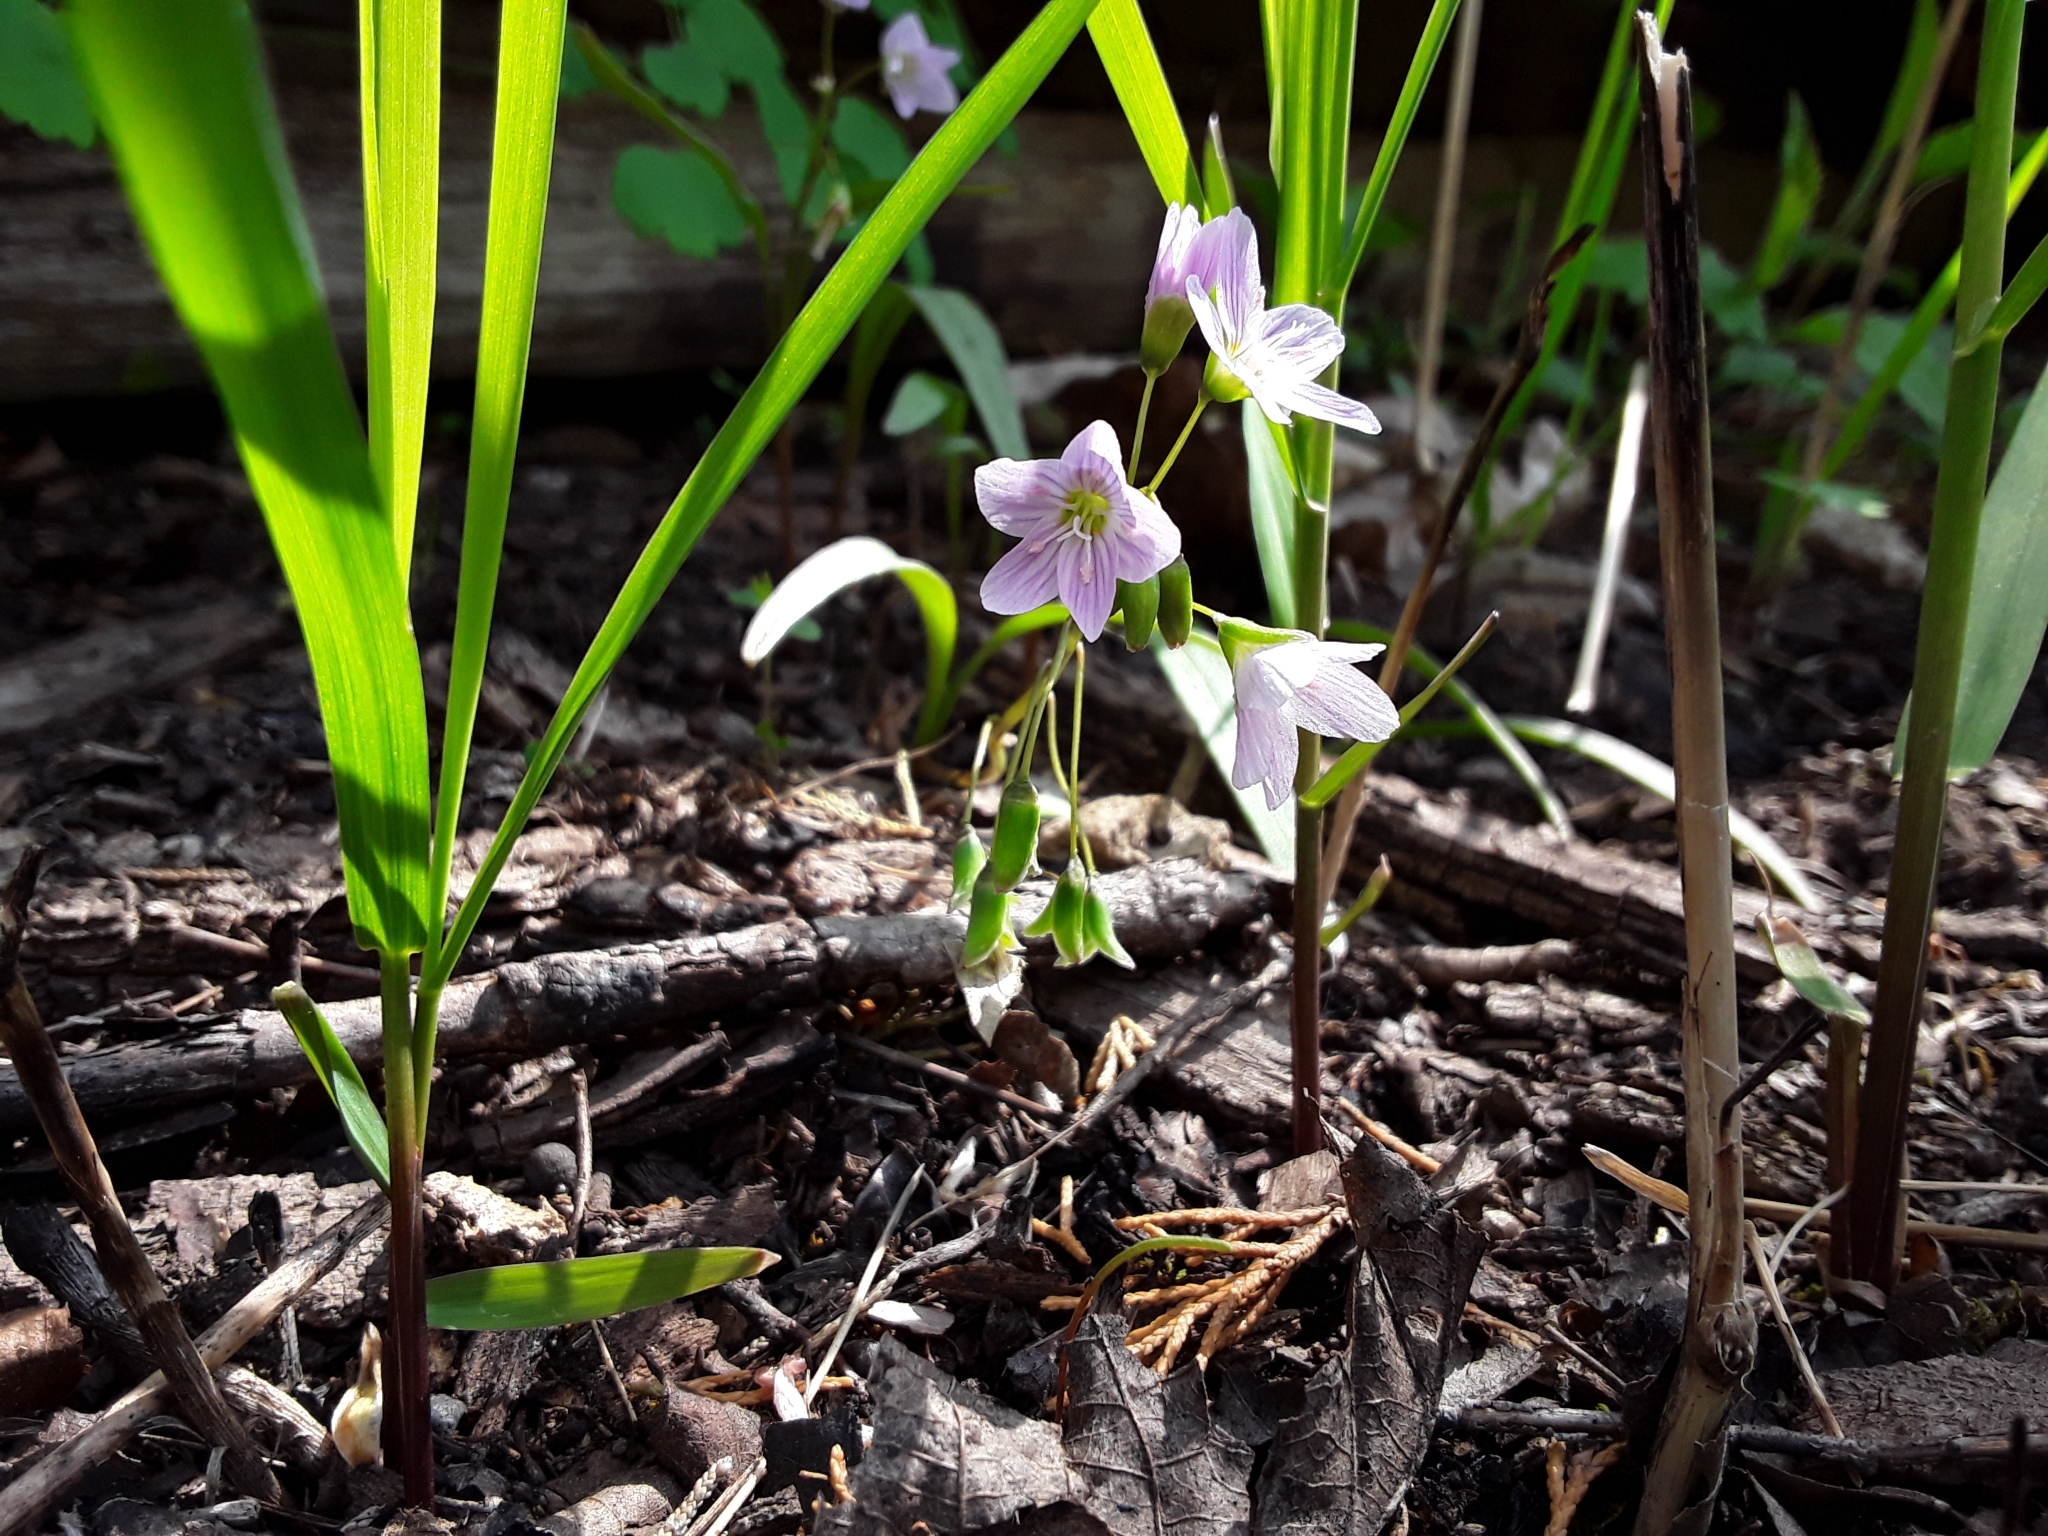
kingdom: Plantae
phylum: Tracheophyta
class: Magnoliopsida
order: Caryophyllales
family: Montiaceae
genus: Claytonia
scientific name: Claytonia virginica
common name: Virginia springbeauty
